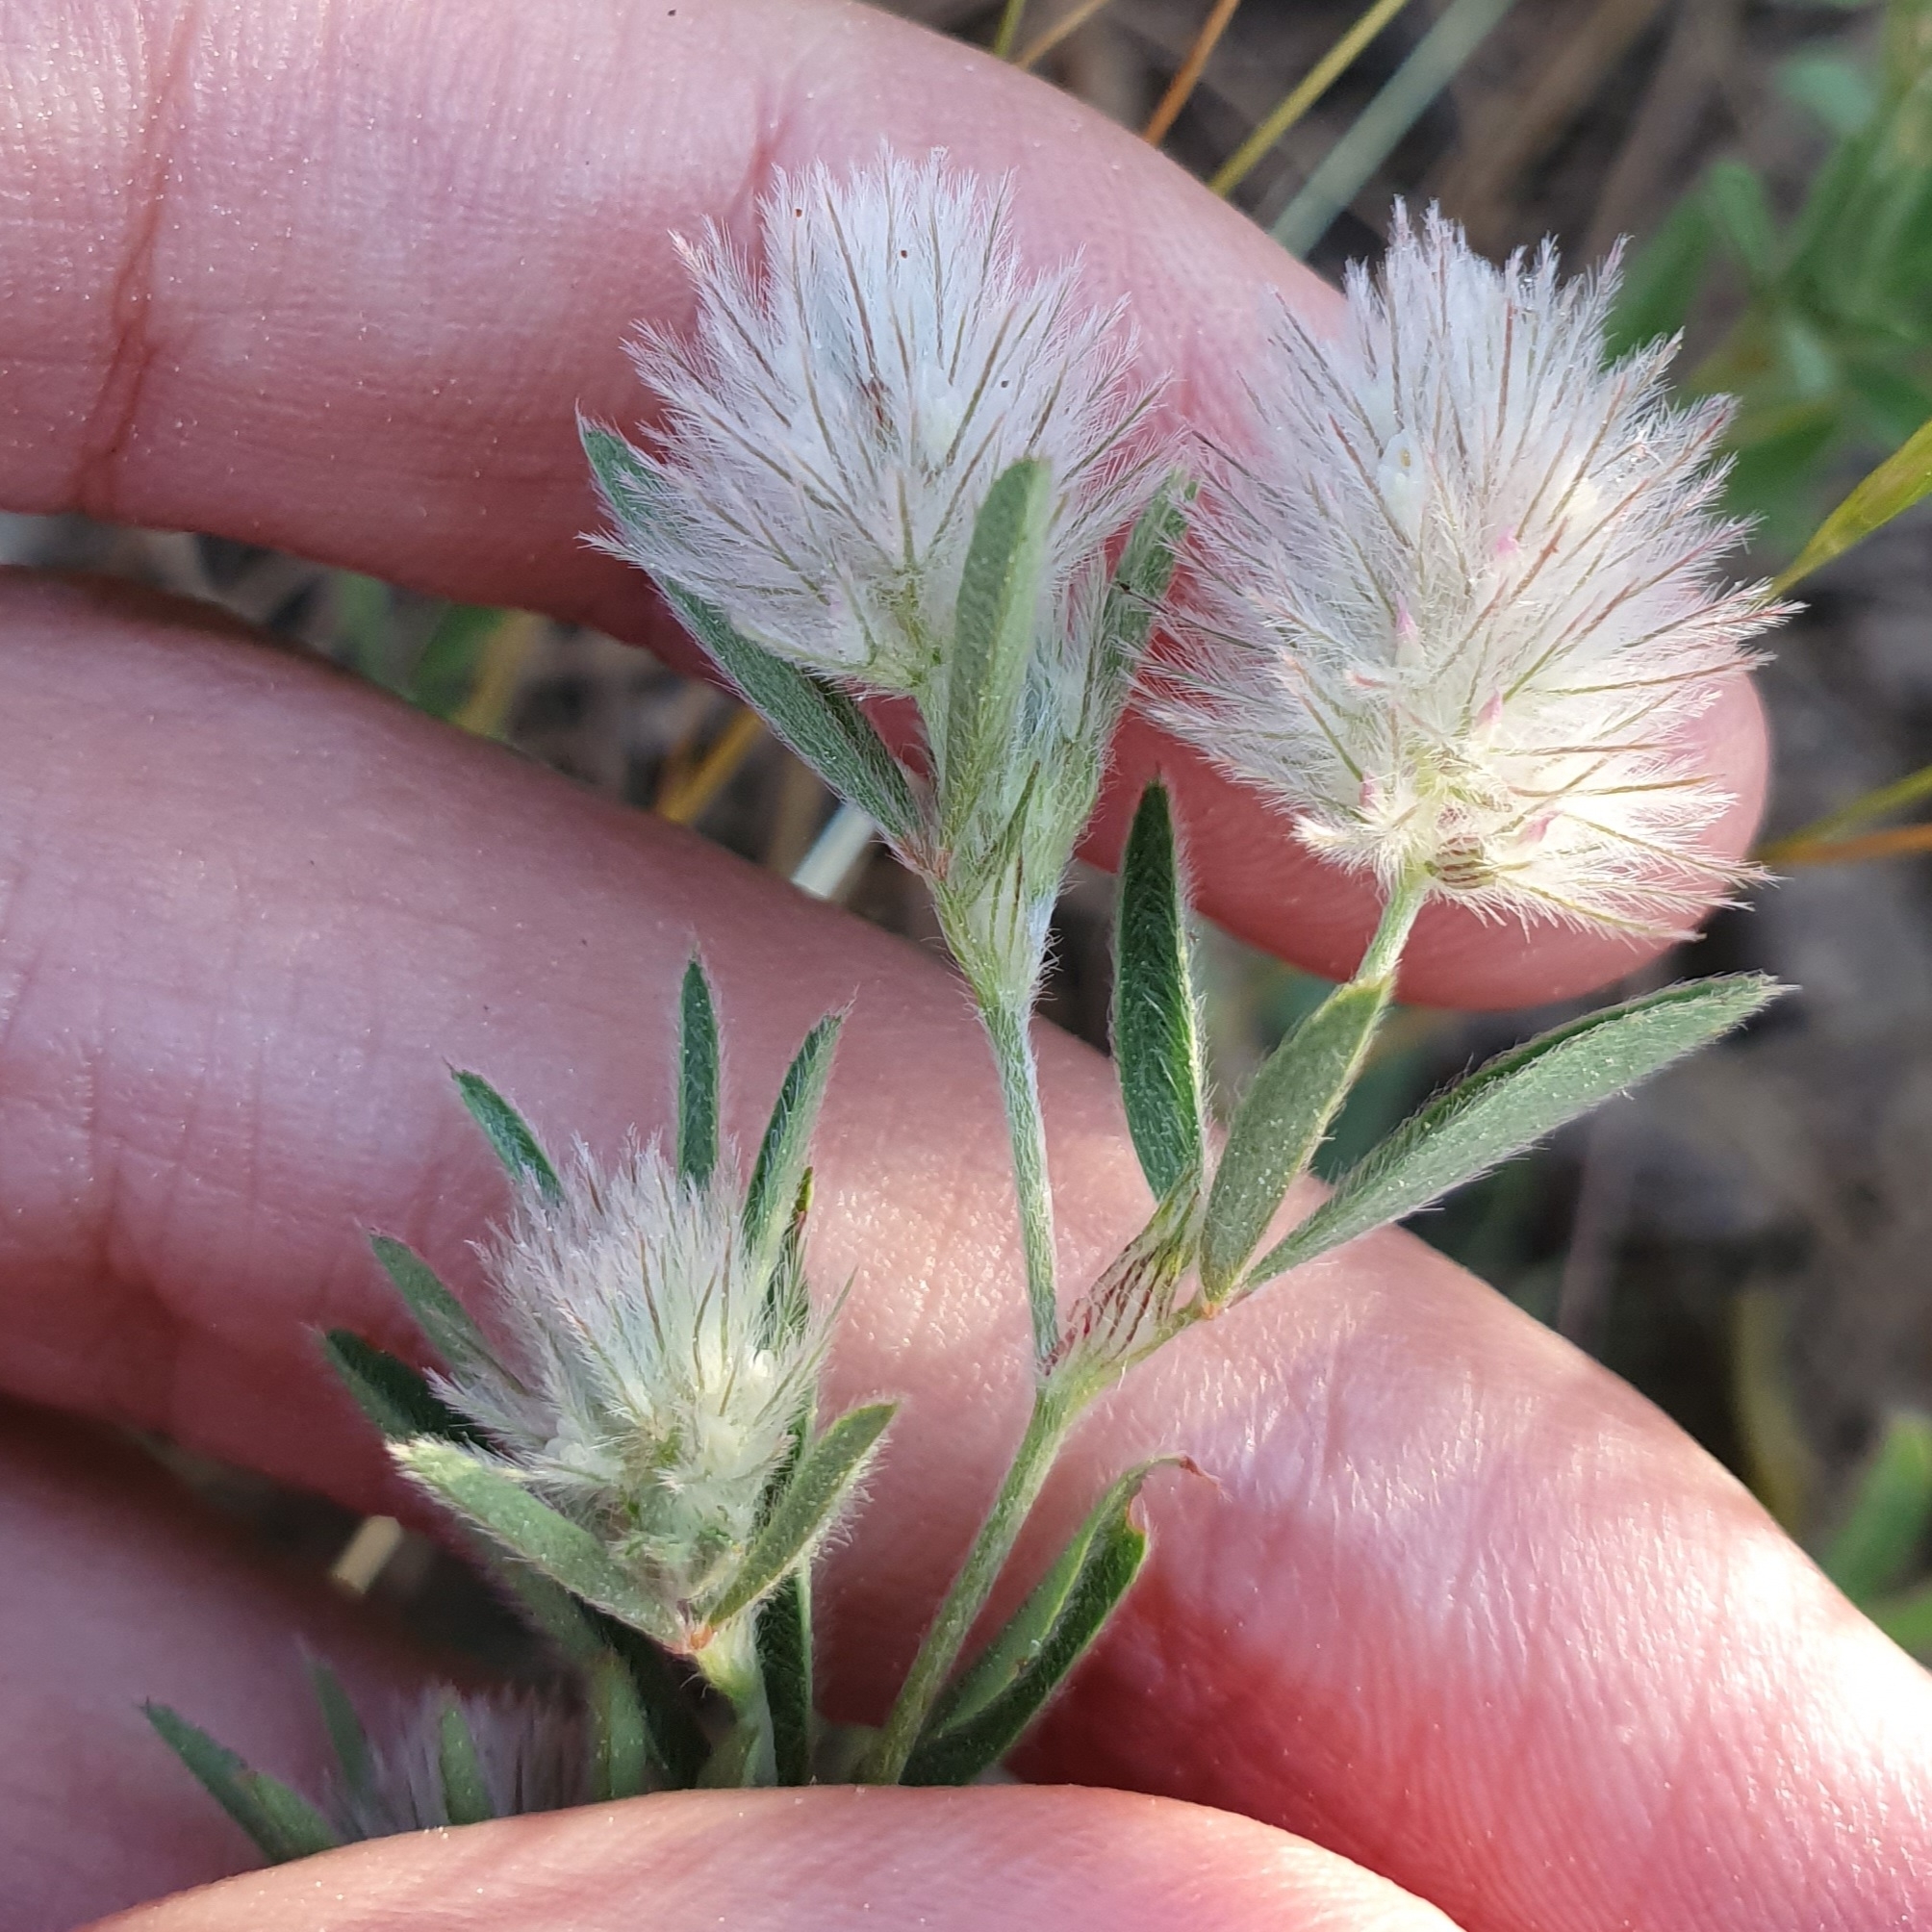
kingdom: Plantae
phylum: Tracheophyta
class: Magnoliopsida
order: Fabales
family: Fabaceae
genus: Trifolium
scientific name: Trifolium arvense
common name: Hare's-foot clover
